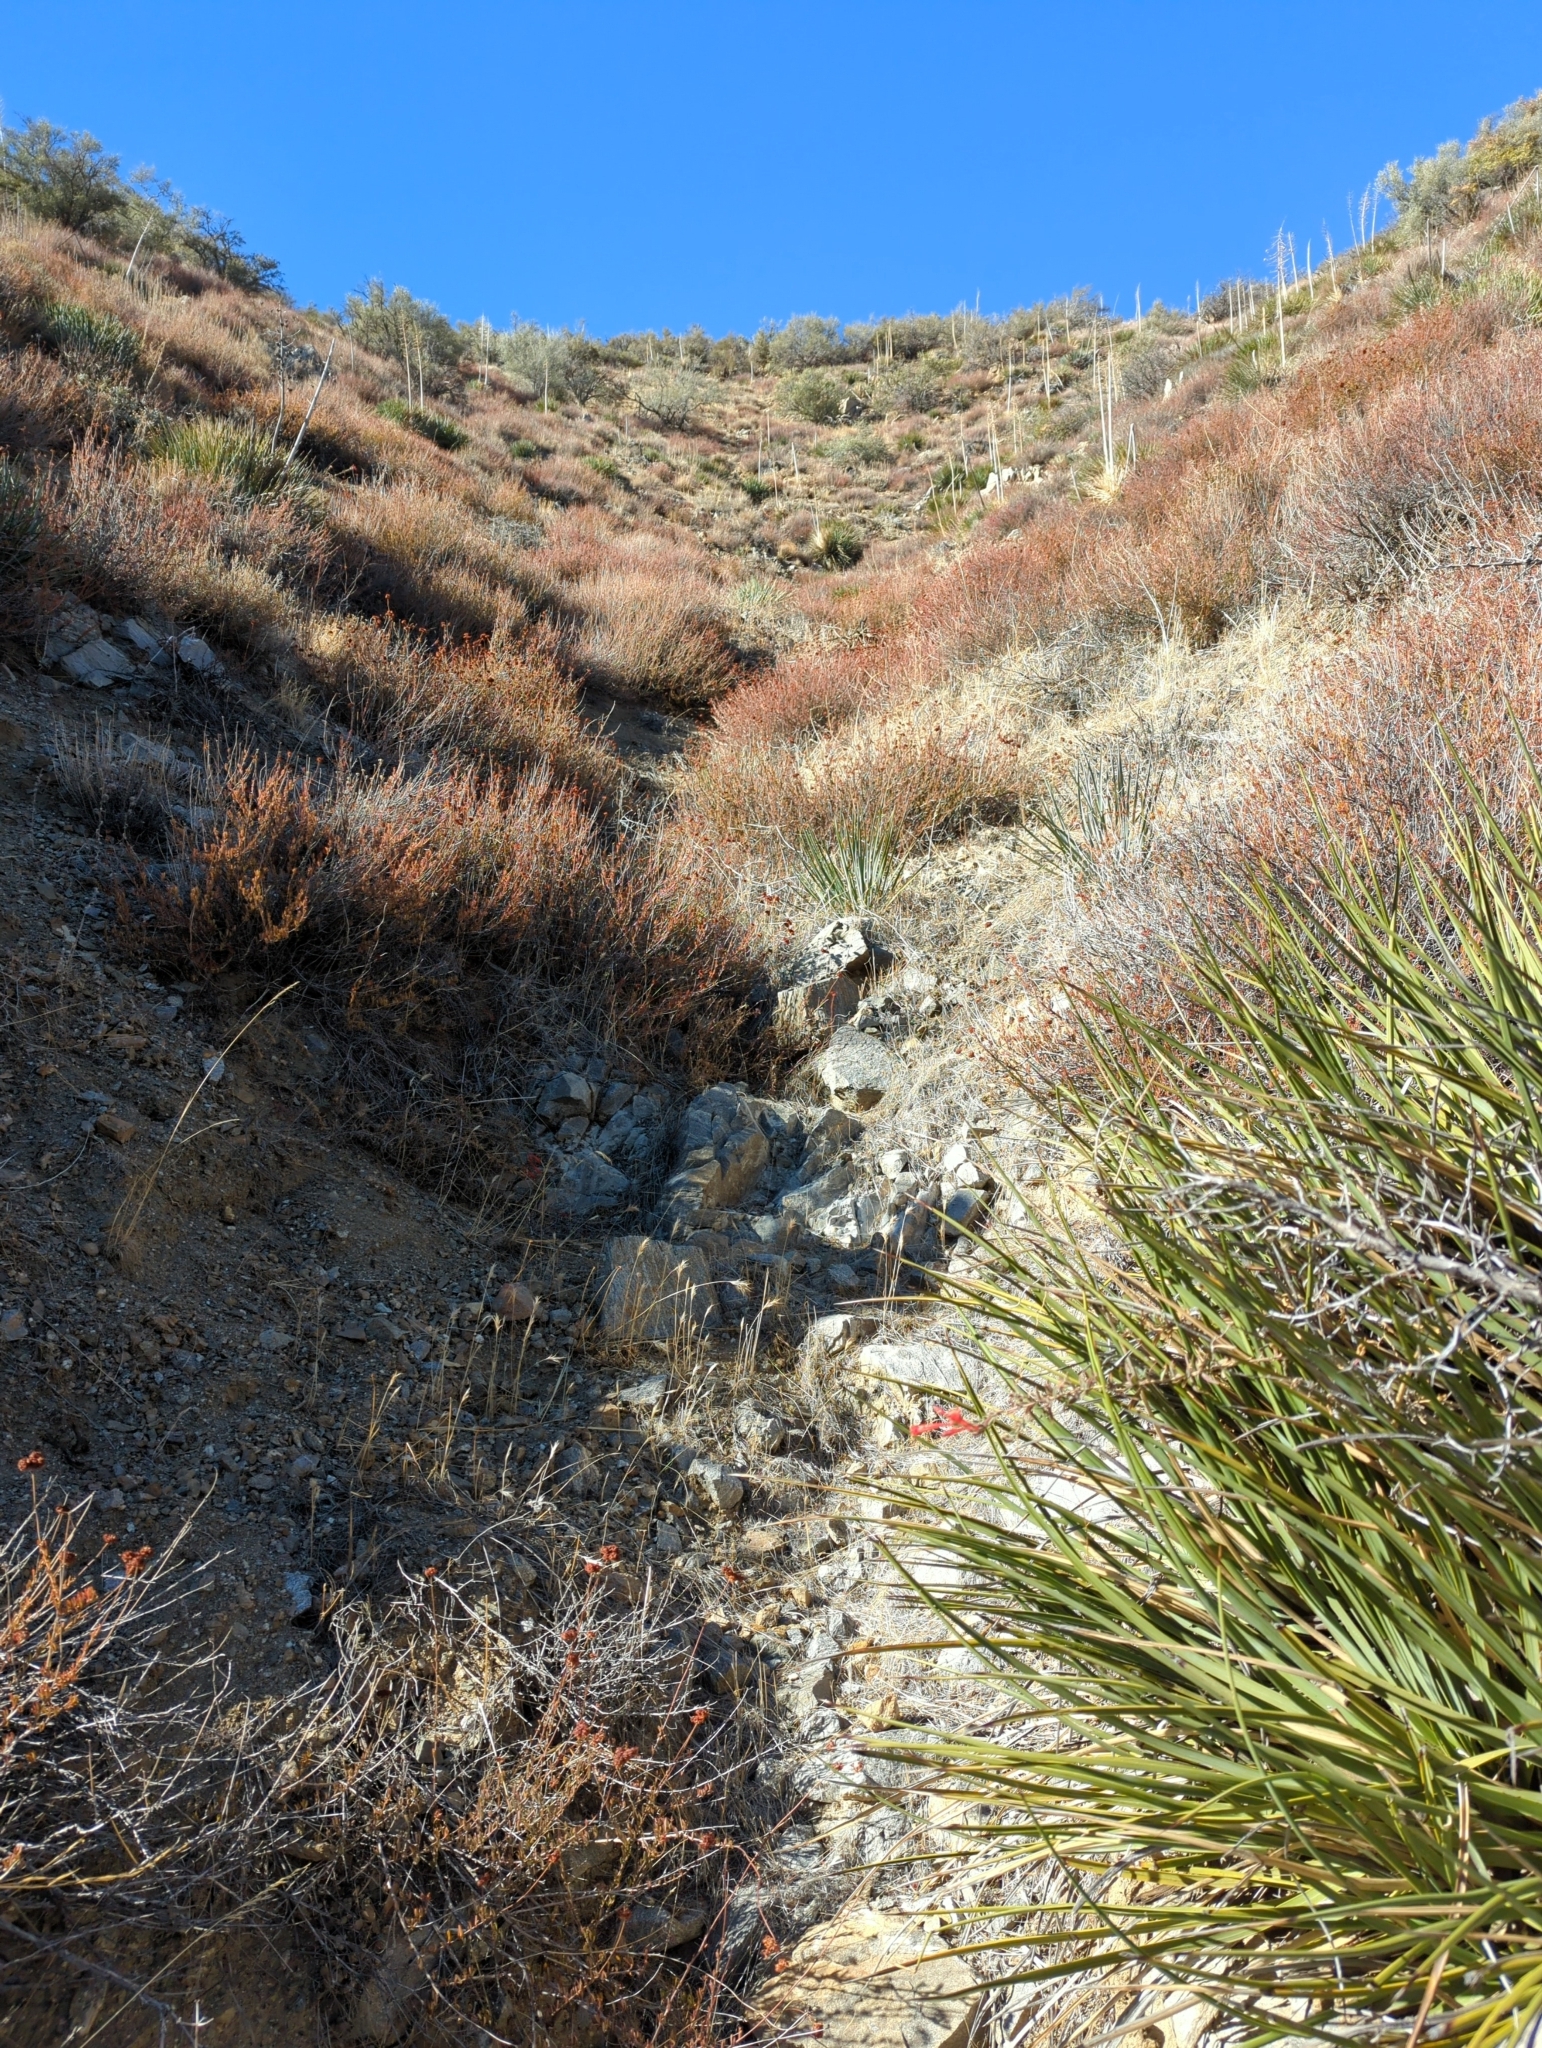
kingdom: Plantae
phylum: Tracheophyta
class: Magnoliopsida
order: Myrtales
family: Onagraceae
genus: Epilobium
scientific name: Epilobium canum
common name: California-fuchsia
